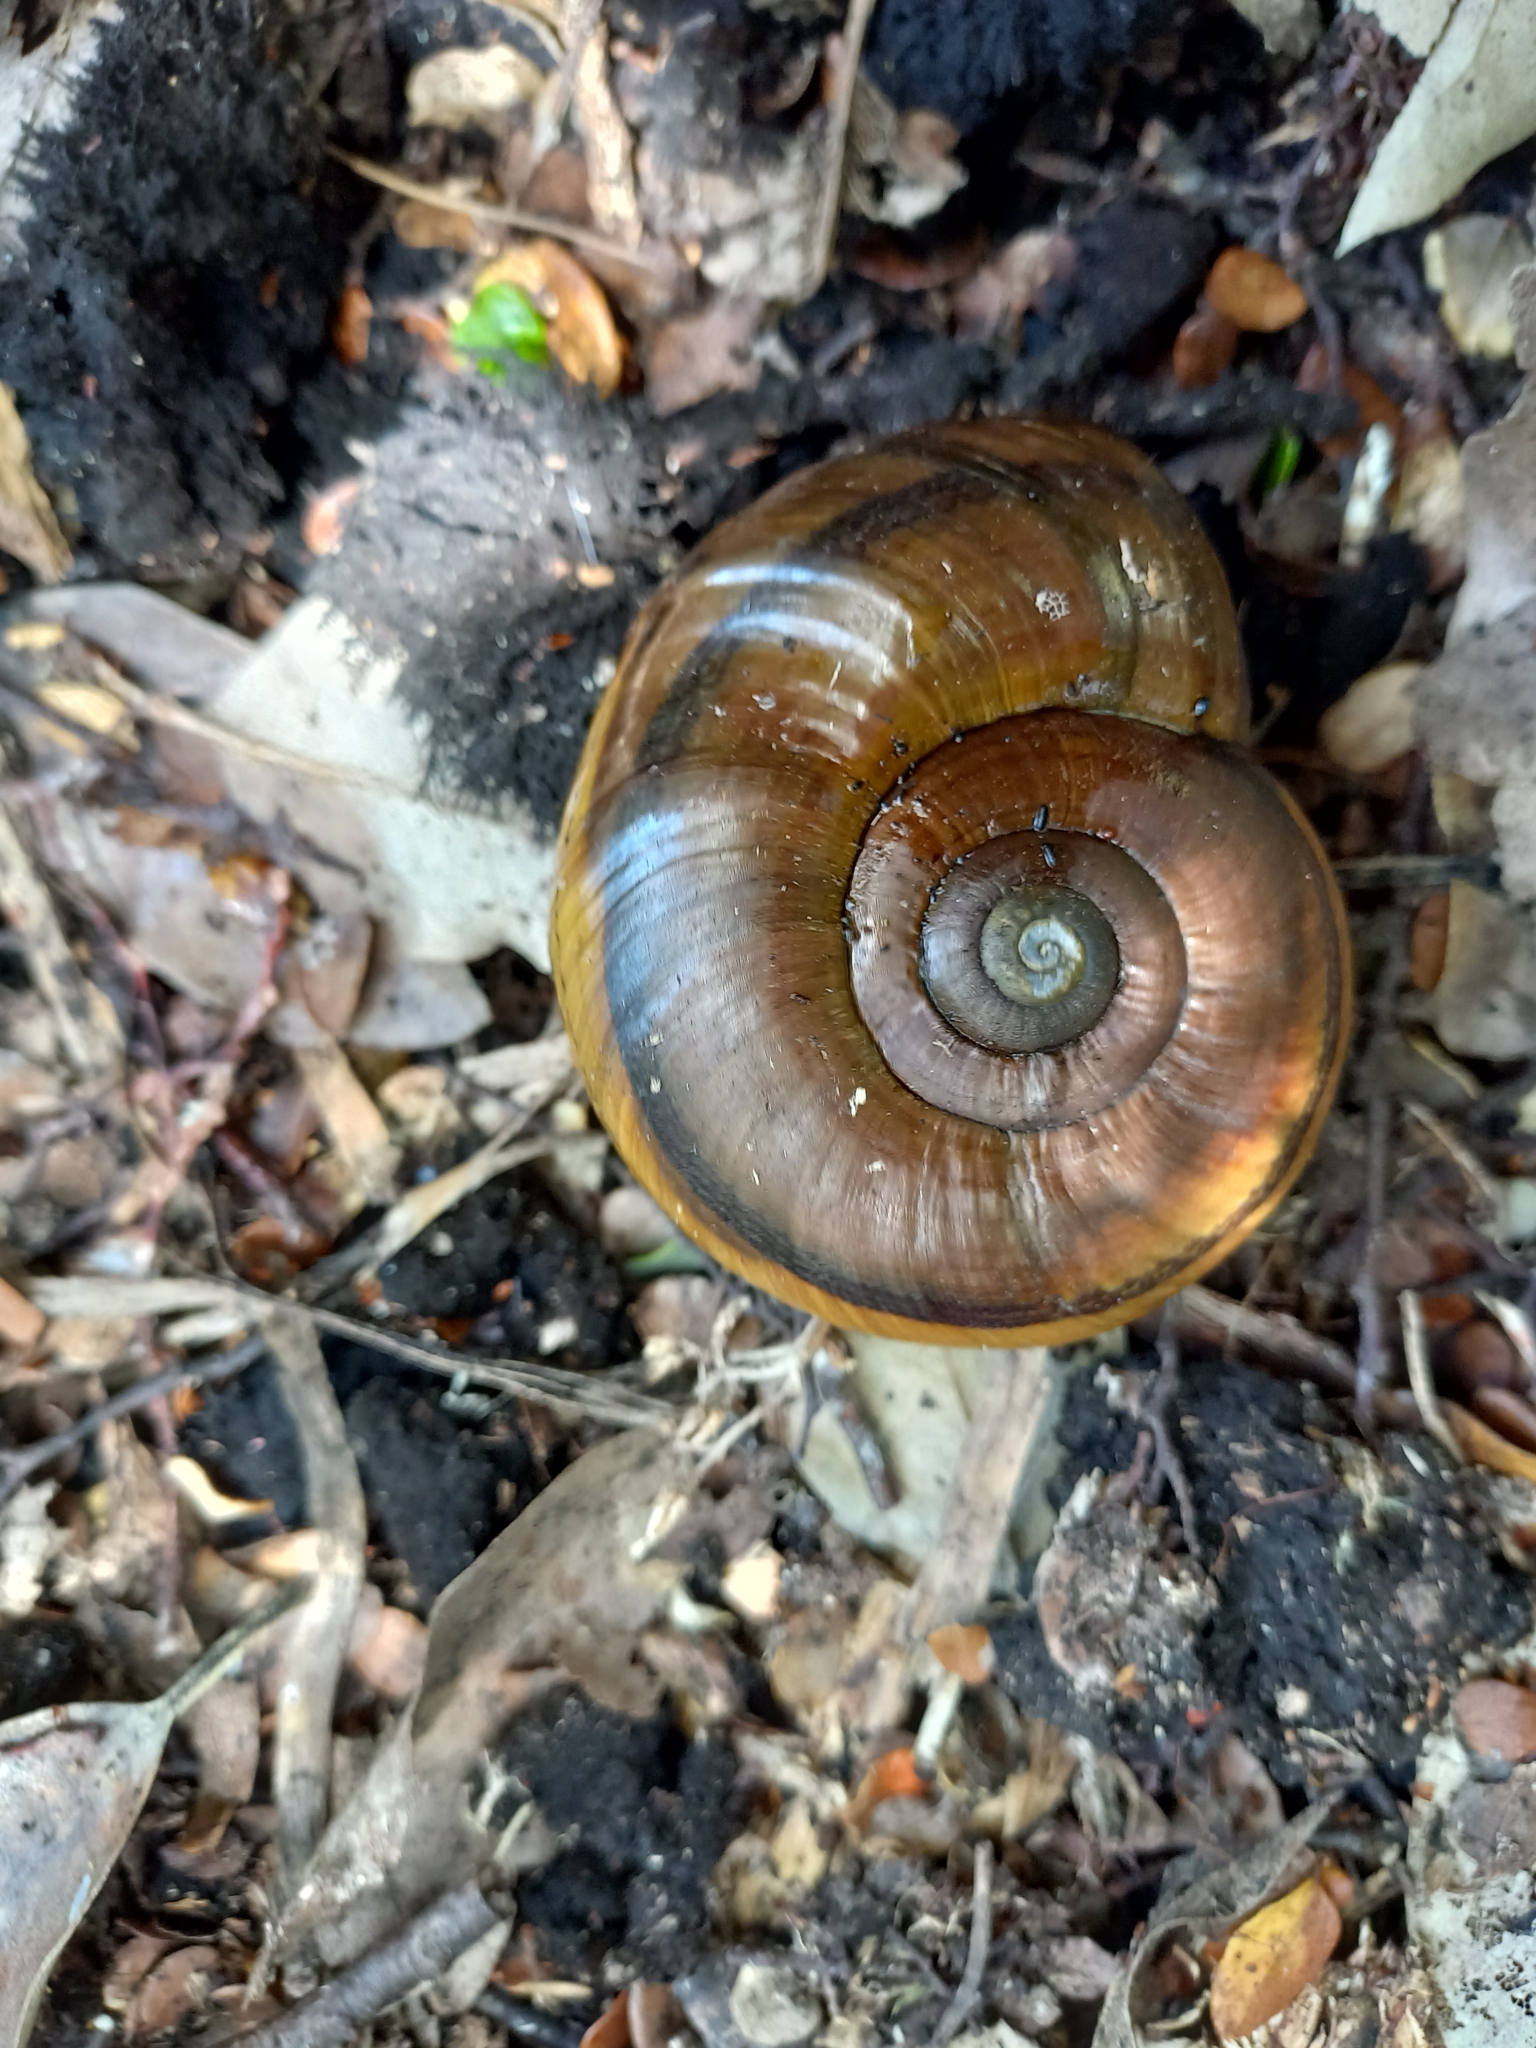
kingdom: Animalia
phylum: Mollusca
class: Gastropoda
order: Stylommatophora
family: Rhytididae
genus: Powelliphanta
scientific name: Powelliphanta hochstetteri
